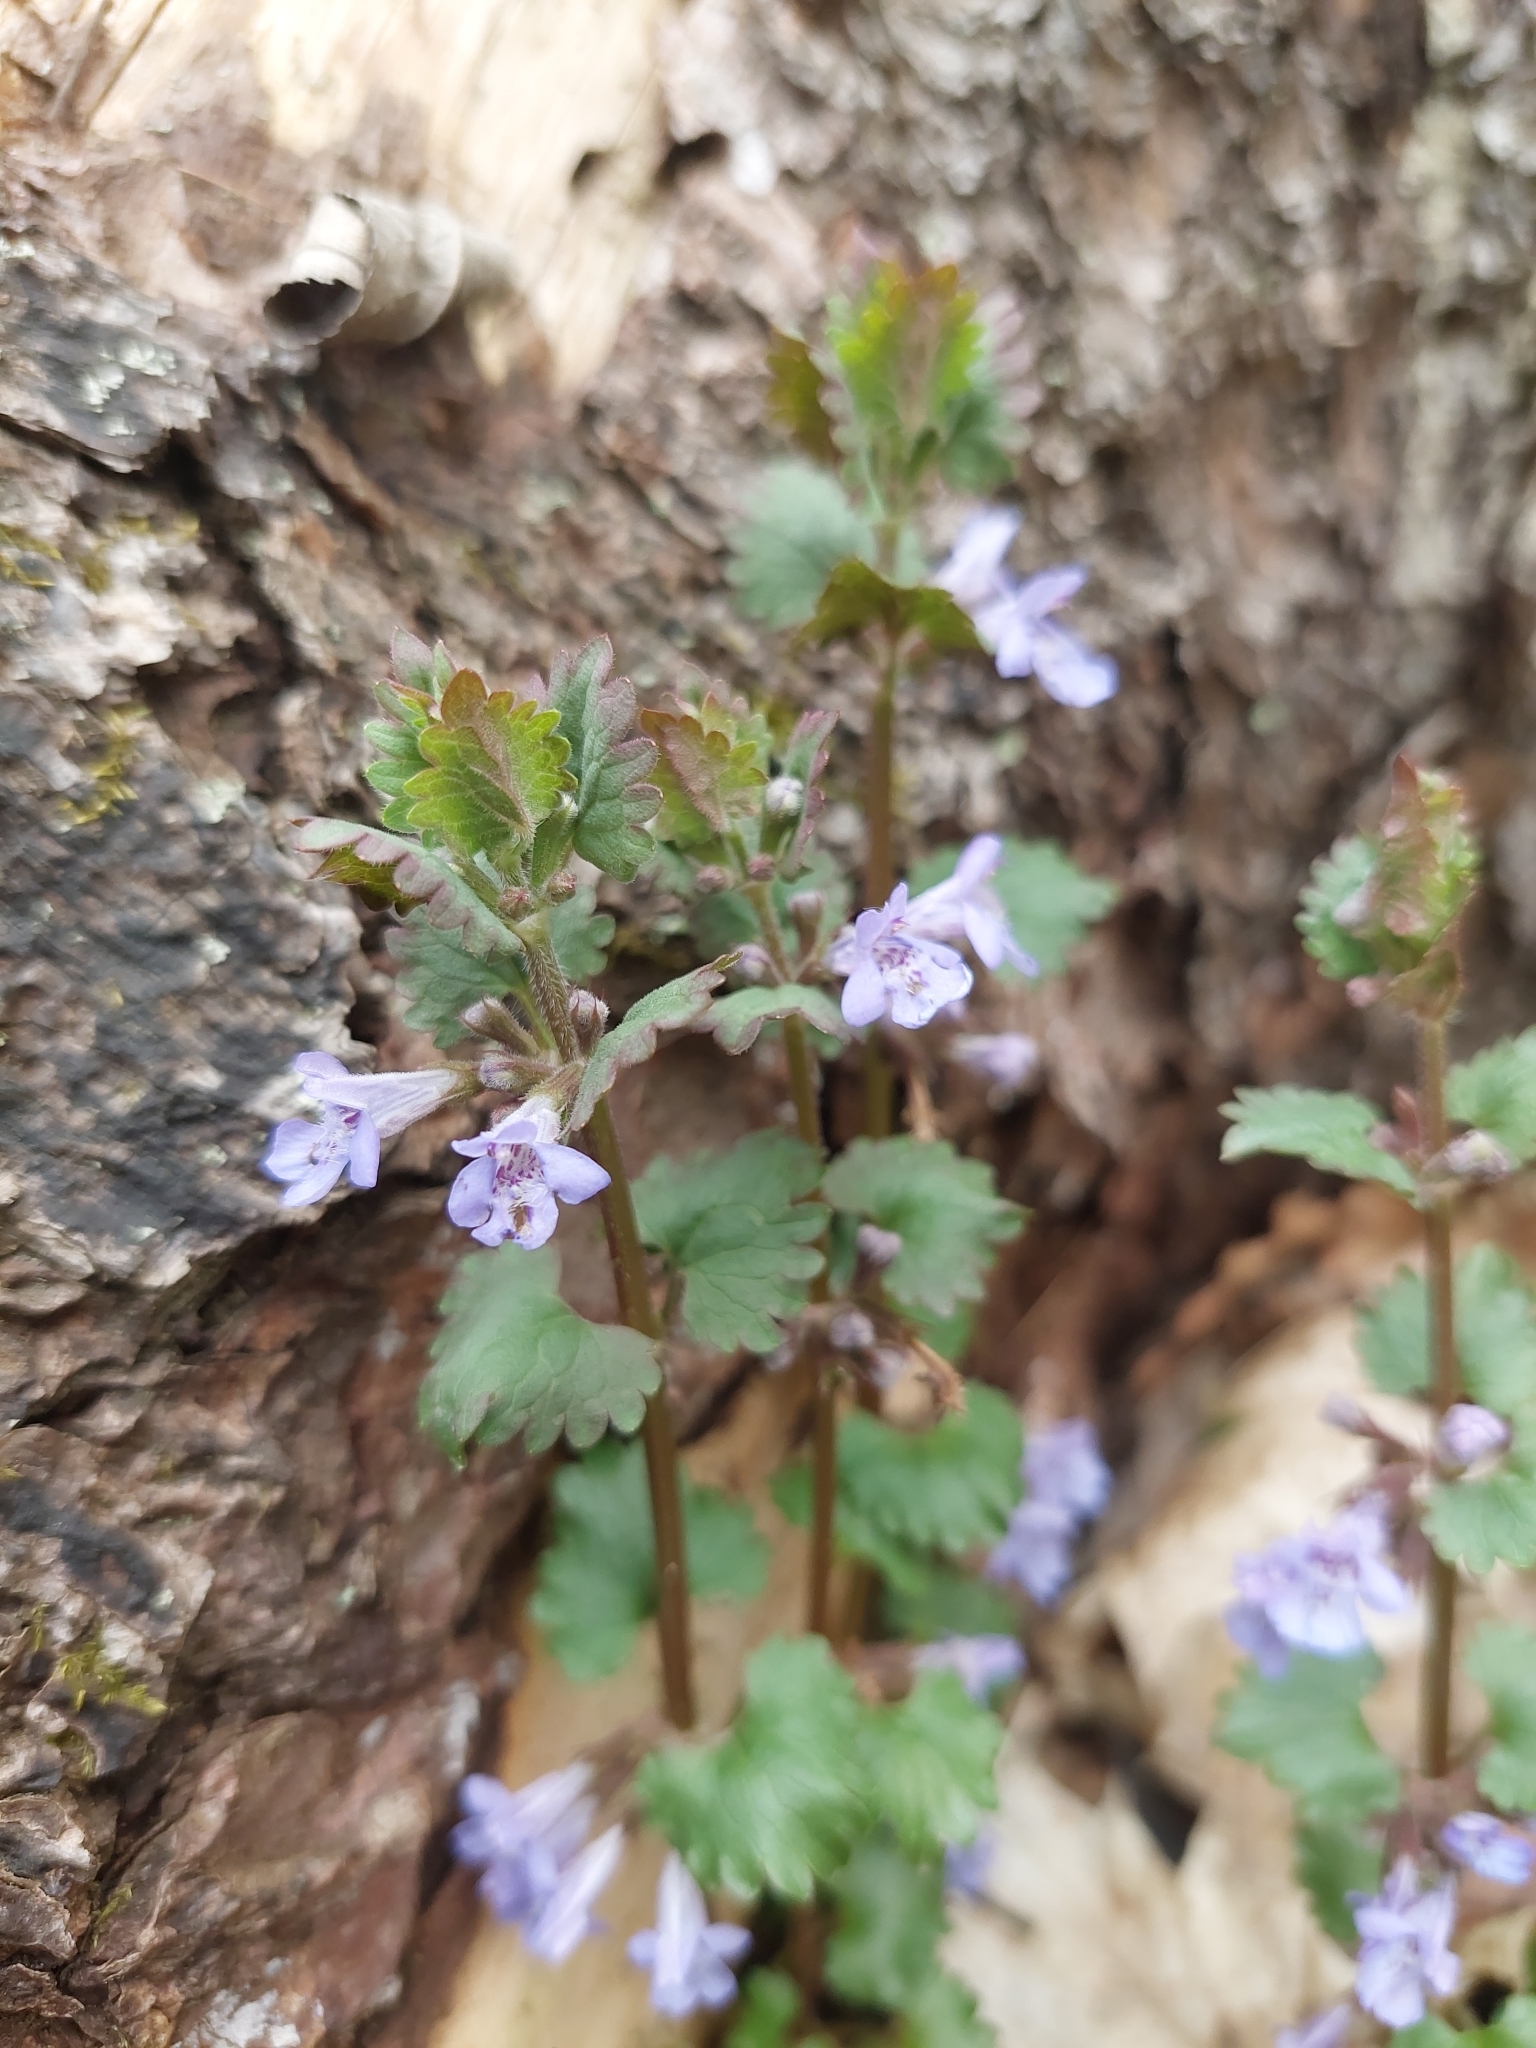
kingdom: Plantae
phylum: Tracheophyta
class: Magnoliopsida
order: Lamiales
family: Lamiaceae
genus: Glechoma
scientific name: Glechoma hederacea
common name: Ground ivy
